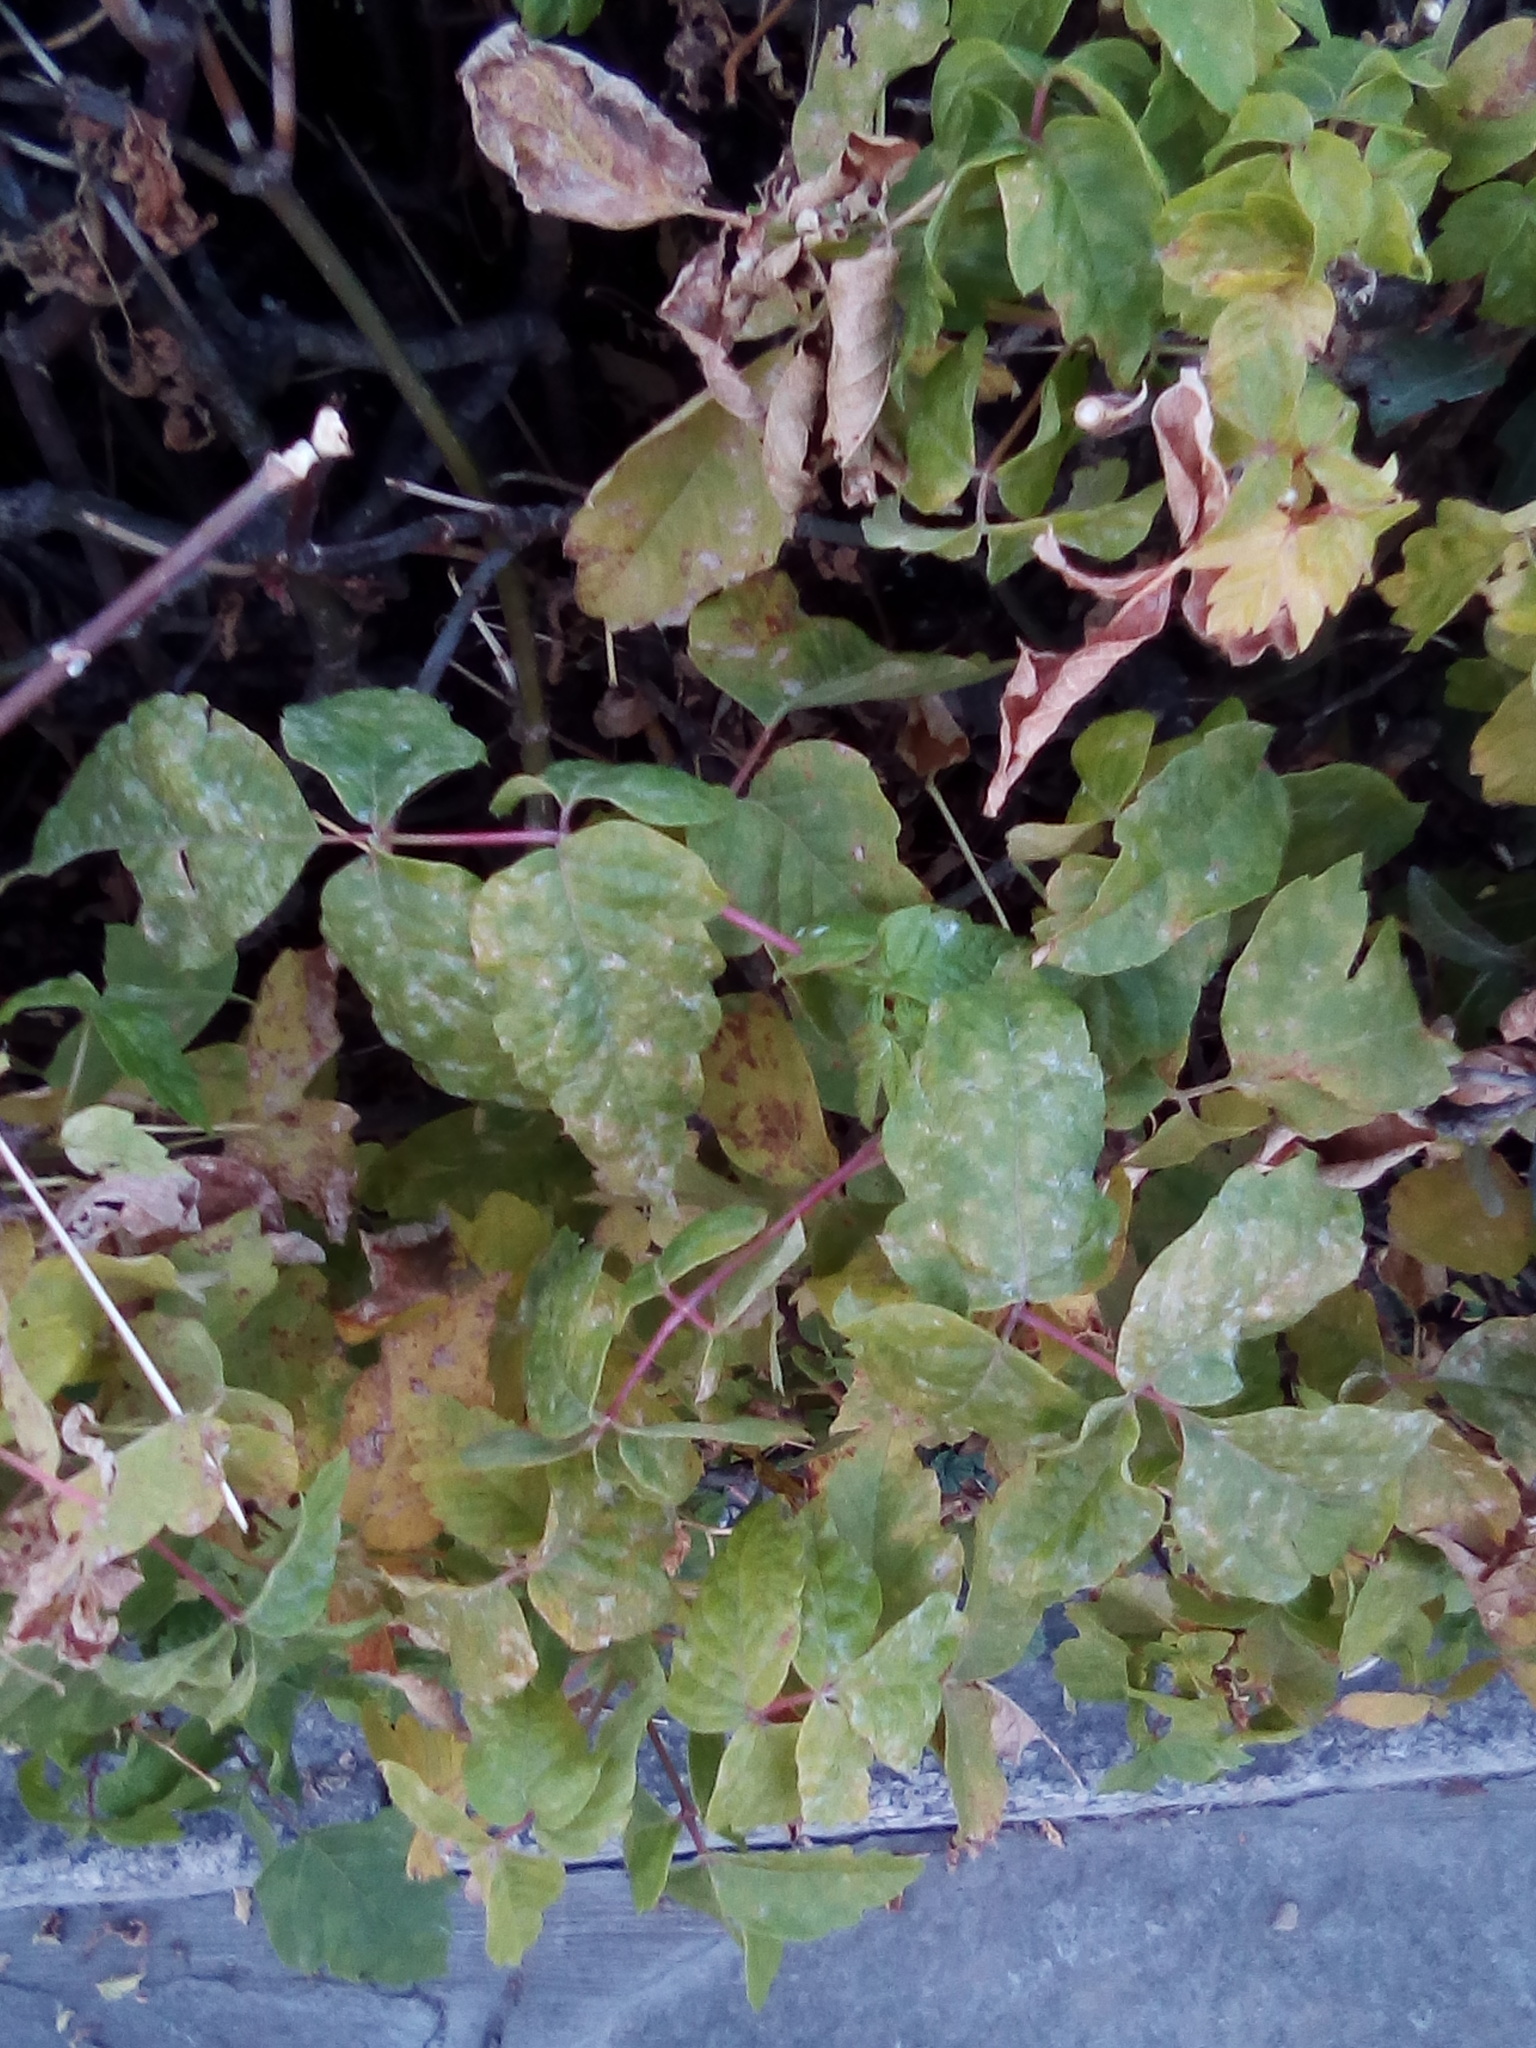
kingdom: Plantae
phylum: Tracheophyta
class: Magnoliopsida
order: Sapindales
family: Sapindaceae
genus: Acer
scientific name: Acer negundo
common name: Ashleaf maple
